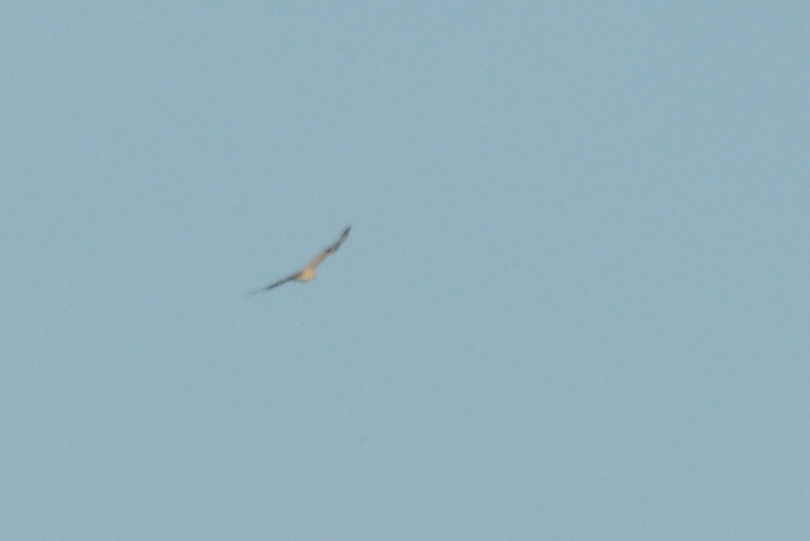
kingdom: Animalia
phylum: Chordata
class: Aves
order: Accipitriformes
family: Accipitridae
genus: Buteo
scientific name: Buteo jamaicensis
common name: Red-tailed hawk
